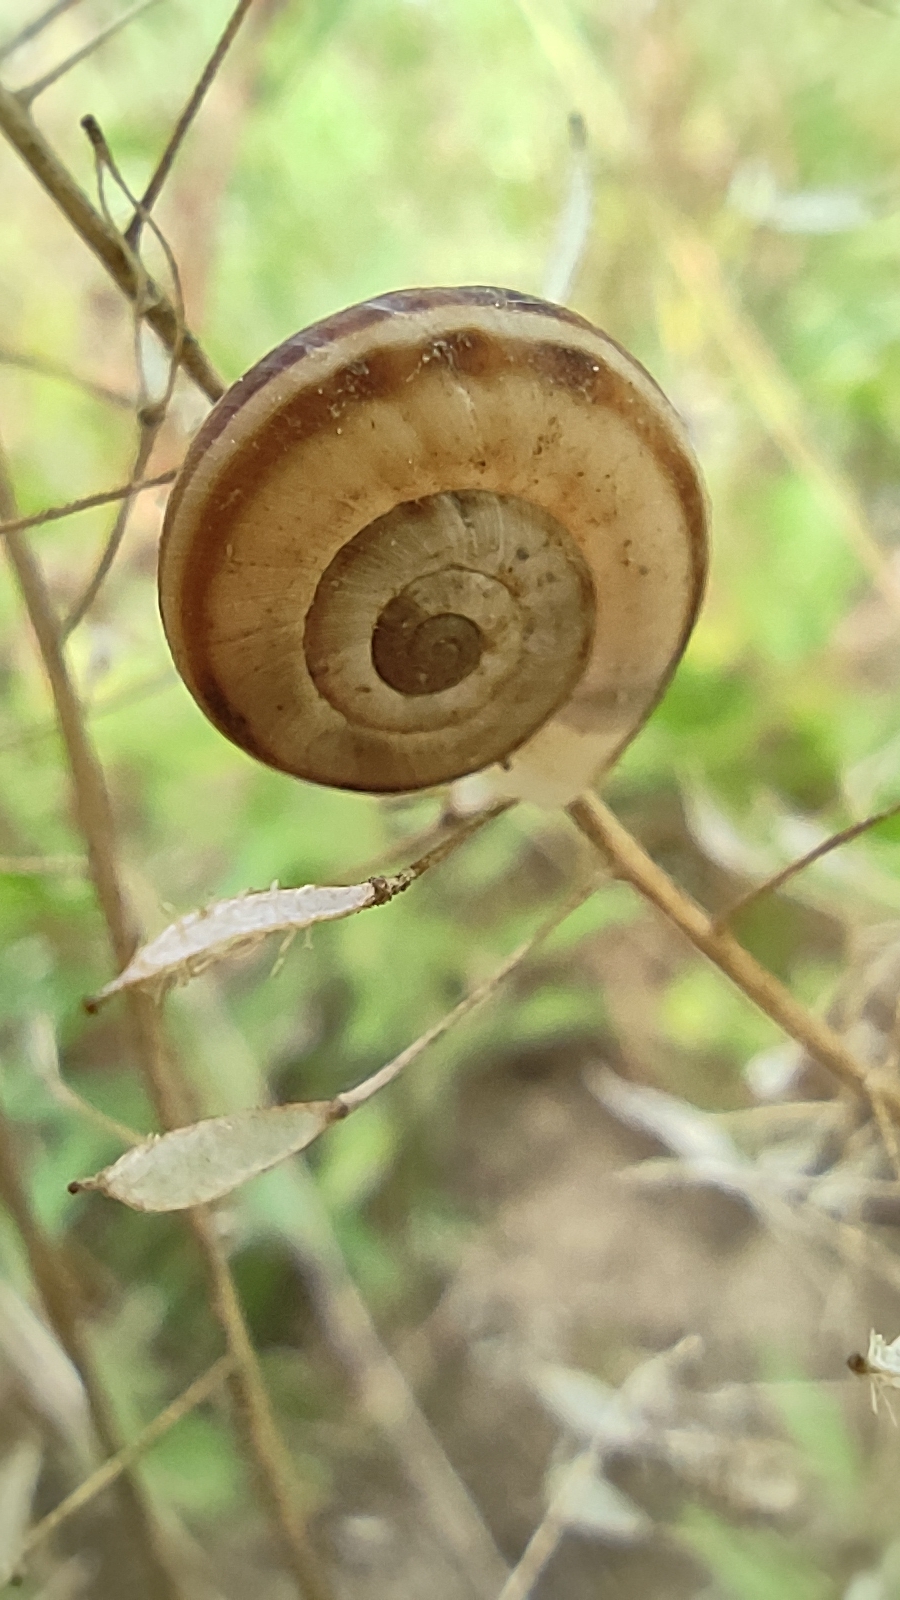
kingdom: Animalia
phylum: Mollusca
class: Gastropoda
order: Stylommatophora
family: Geomitridae
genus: Xerolenta
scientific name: Xerolenta obvia
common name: White heath snail
